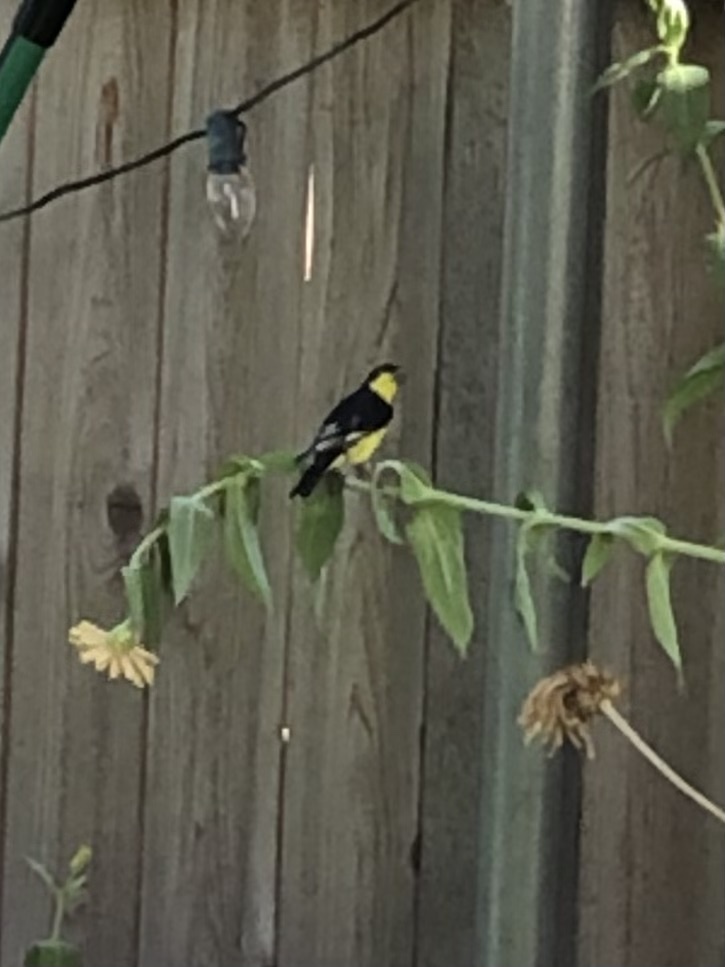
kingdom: Animalia
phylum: Chordata
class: Aves
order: Passeriformes
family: Fringillidae
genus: Spinus
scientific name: Spinus psaltria
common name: Lesser goldfinch
